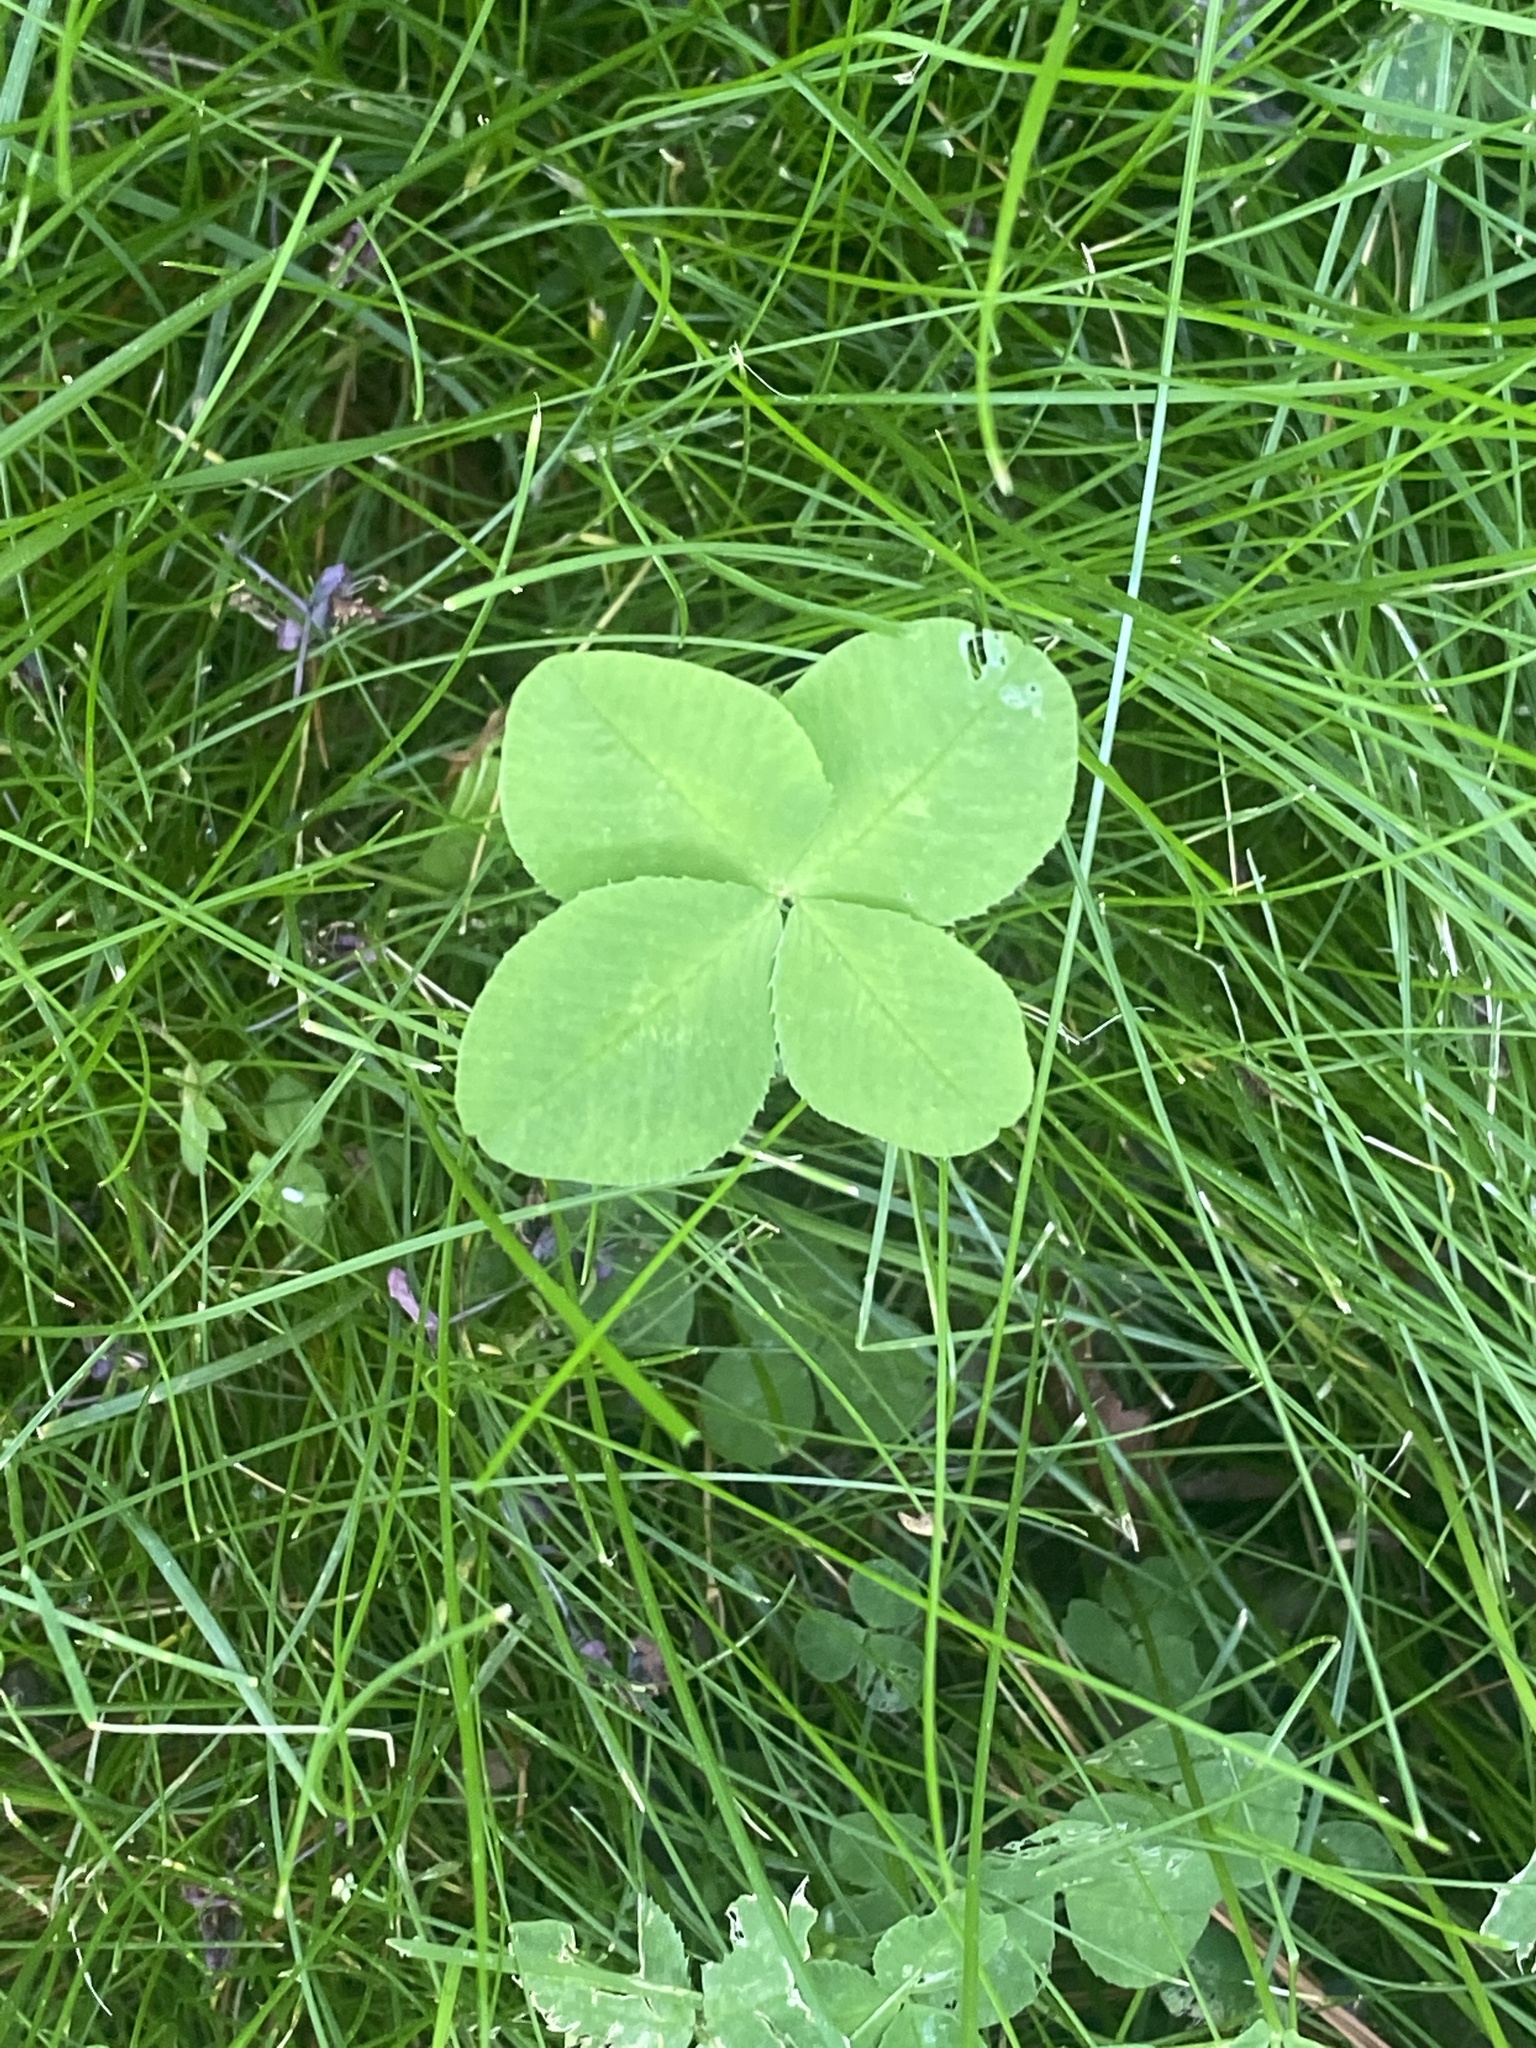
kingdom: Plantae
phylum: Tracheophyta
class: Magnoliopsida
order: Fabales
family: Fabaceae
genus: Trifolium
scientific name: Trifolium repens
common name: White clover
